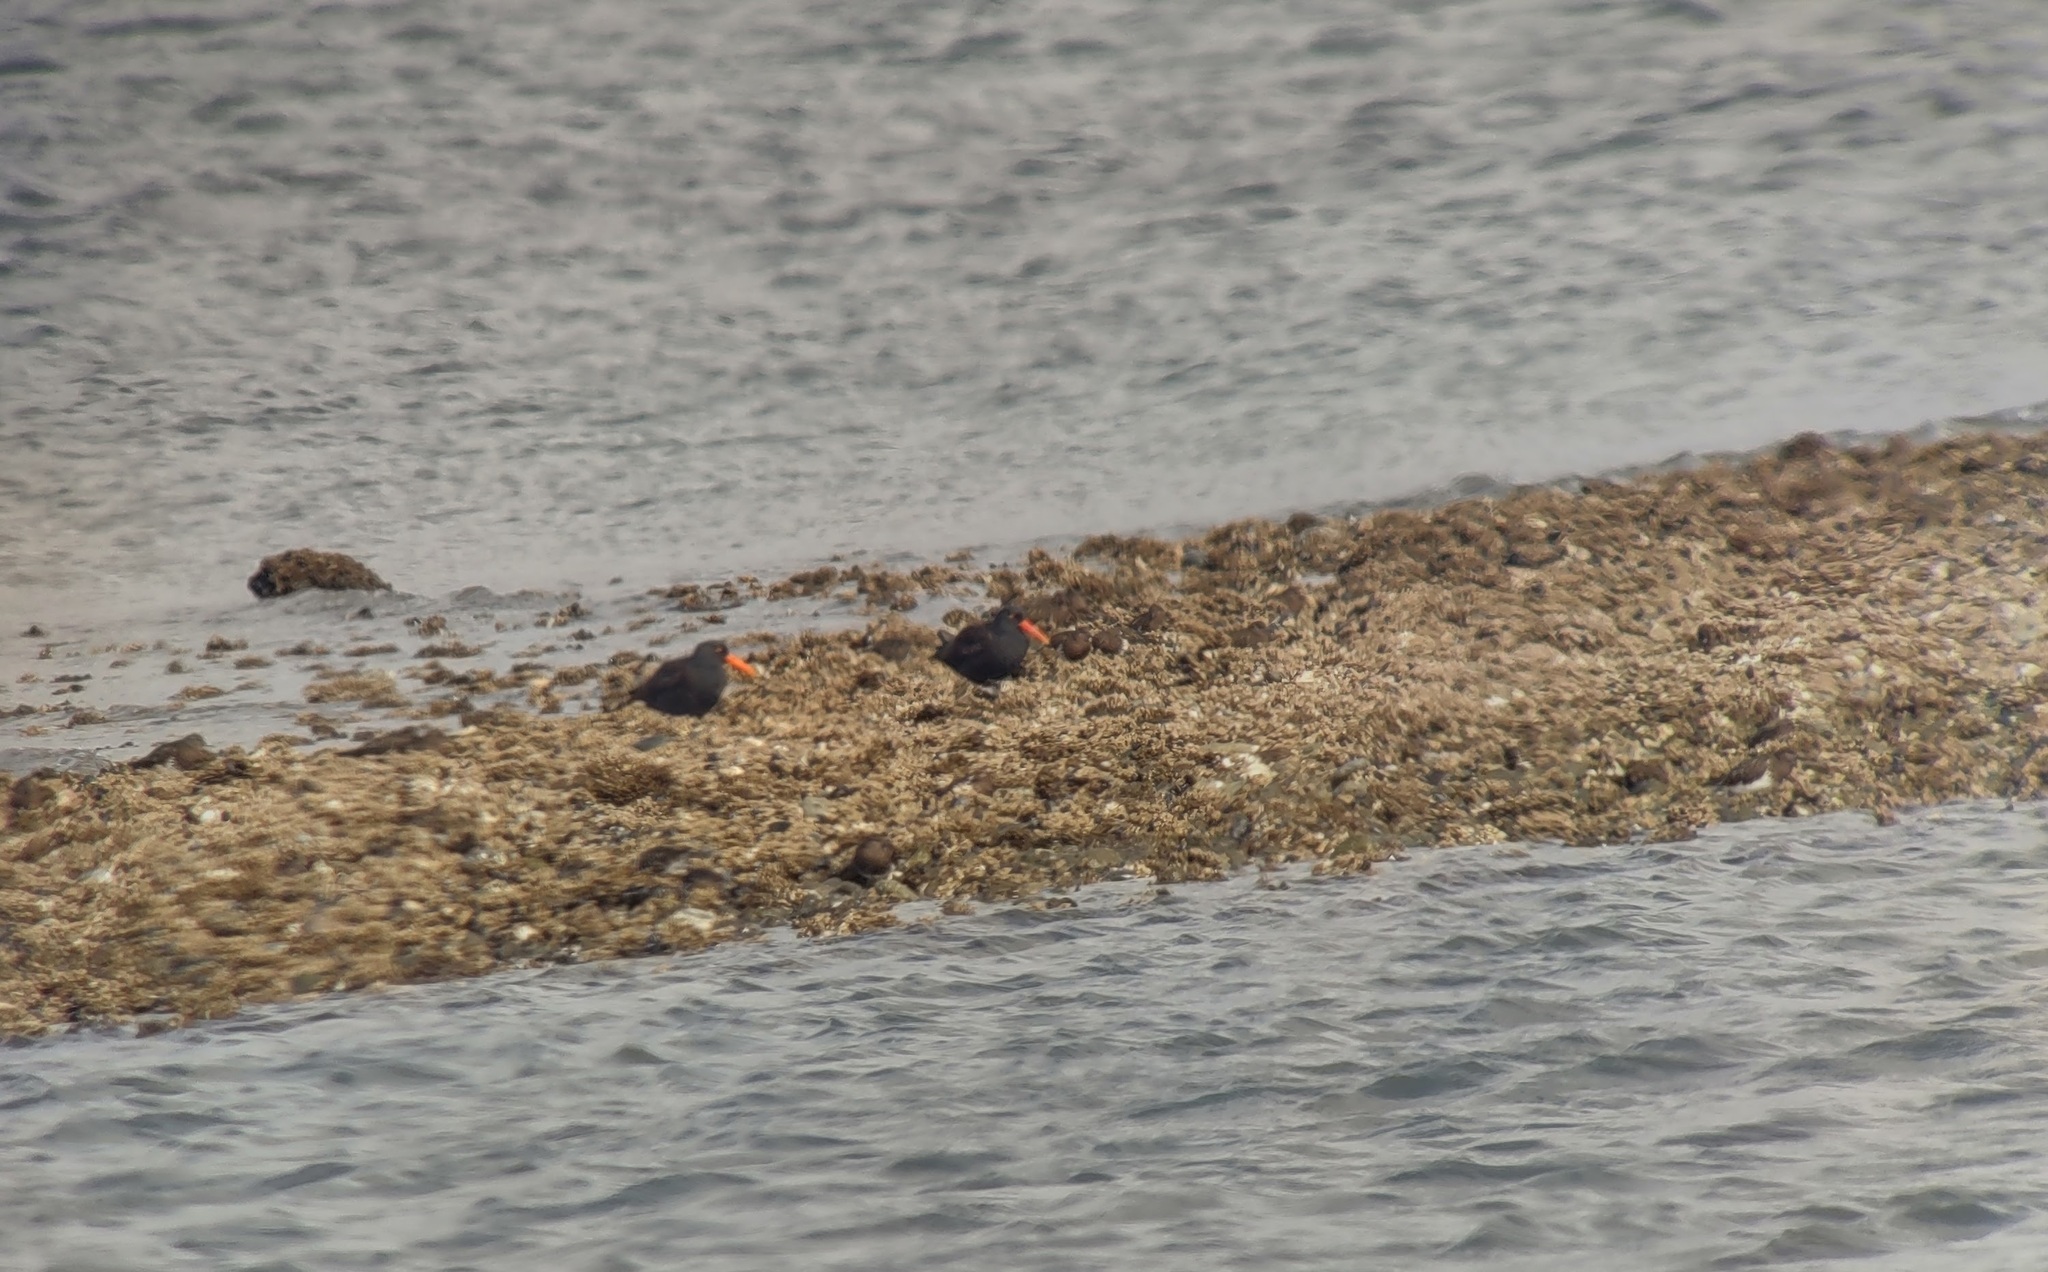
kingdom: Animalia
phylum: Chordata
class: Aves
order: Charadriiformes
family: Haematopodidae
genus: Haematopus
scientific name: Haematopus bachmani
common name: Black oystercatcher
